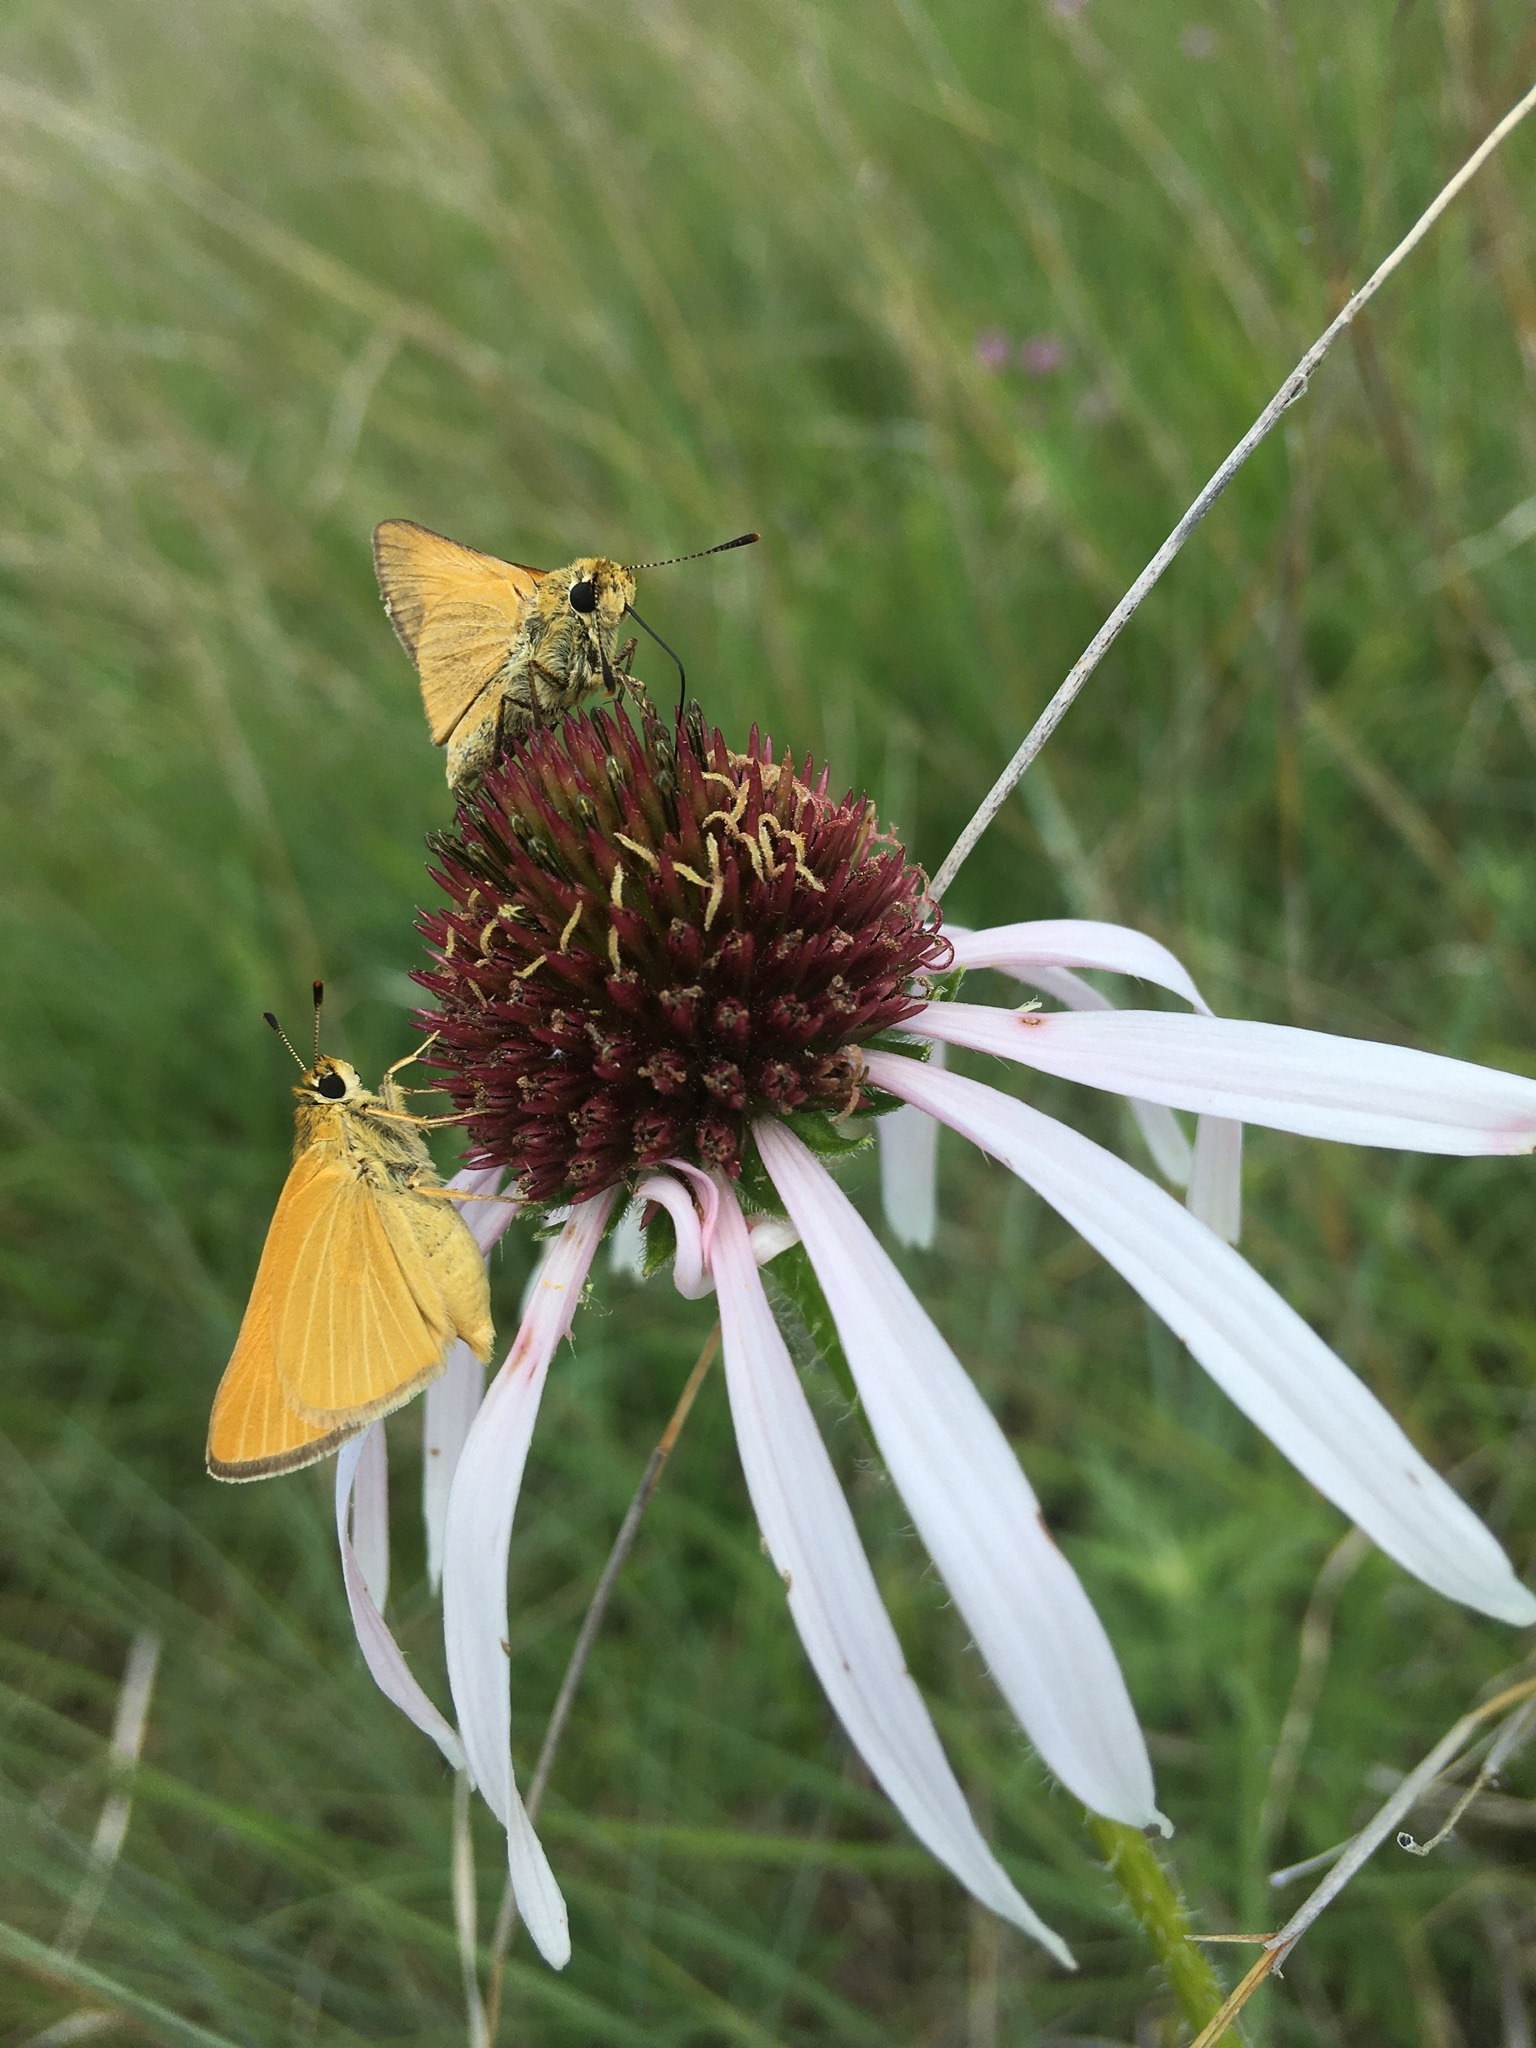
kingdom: Animalia
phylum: Arthropoda
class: Insecta
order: Lepidoptera
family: Hesperiidae
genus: Atrytone
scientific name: Atrytone delaware
